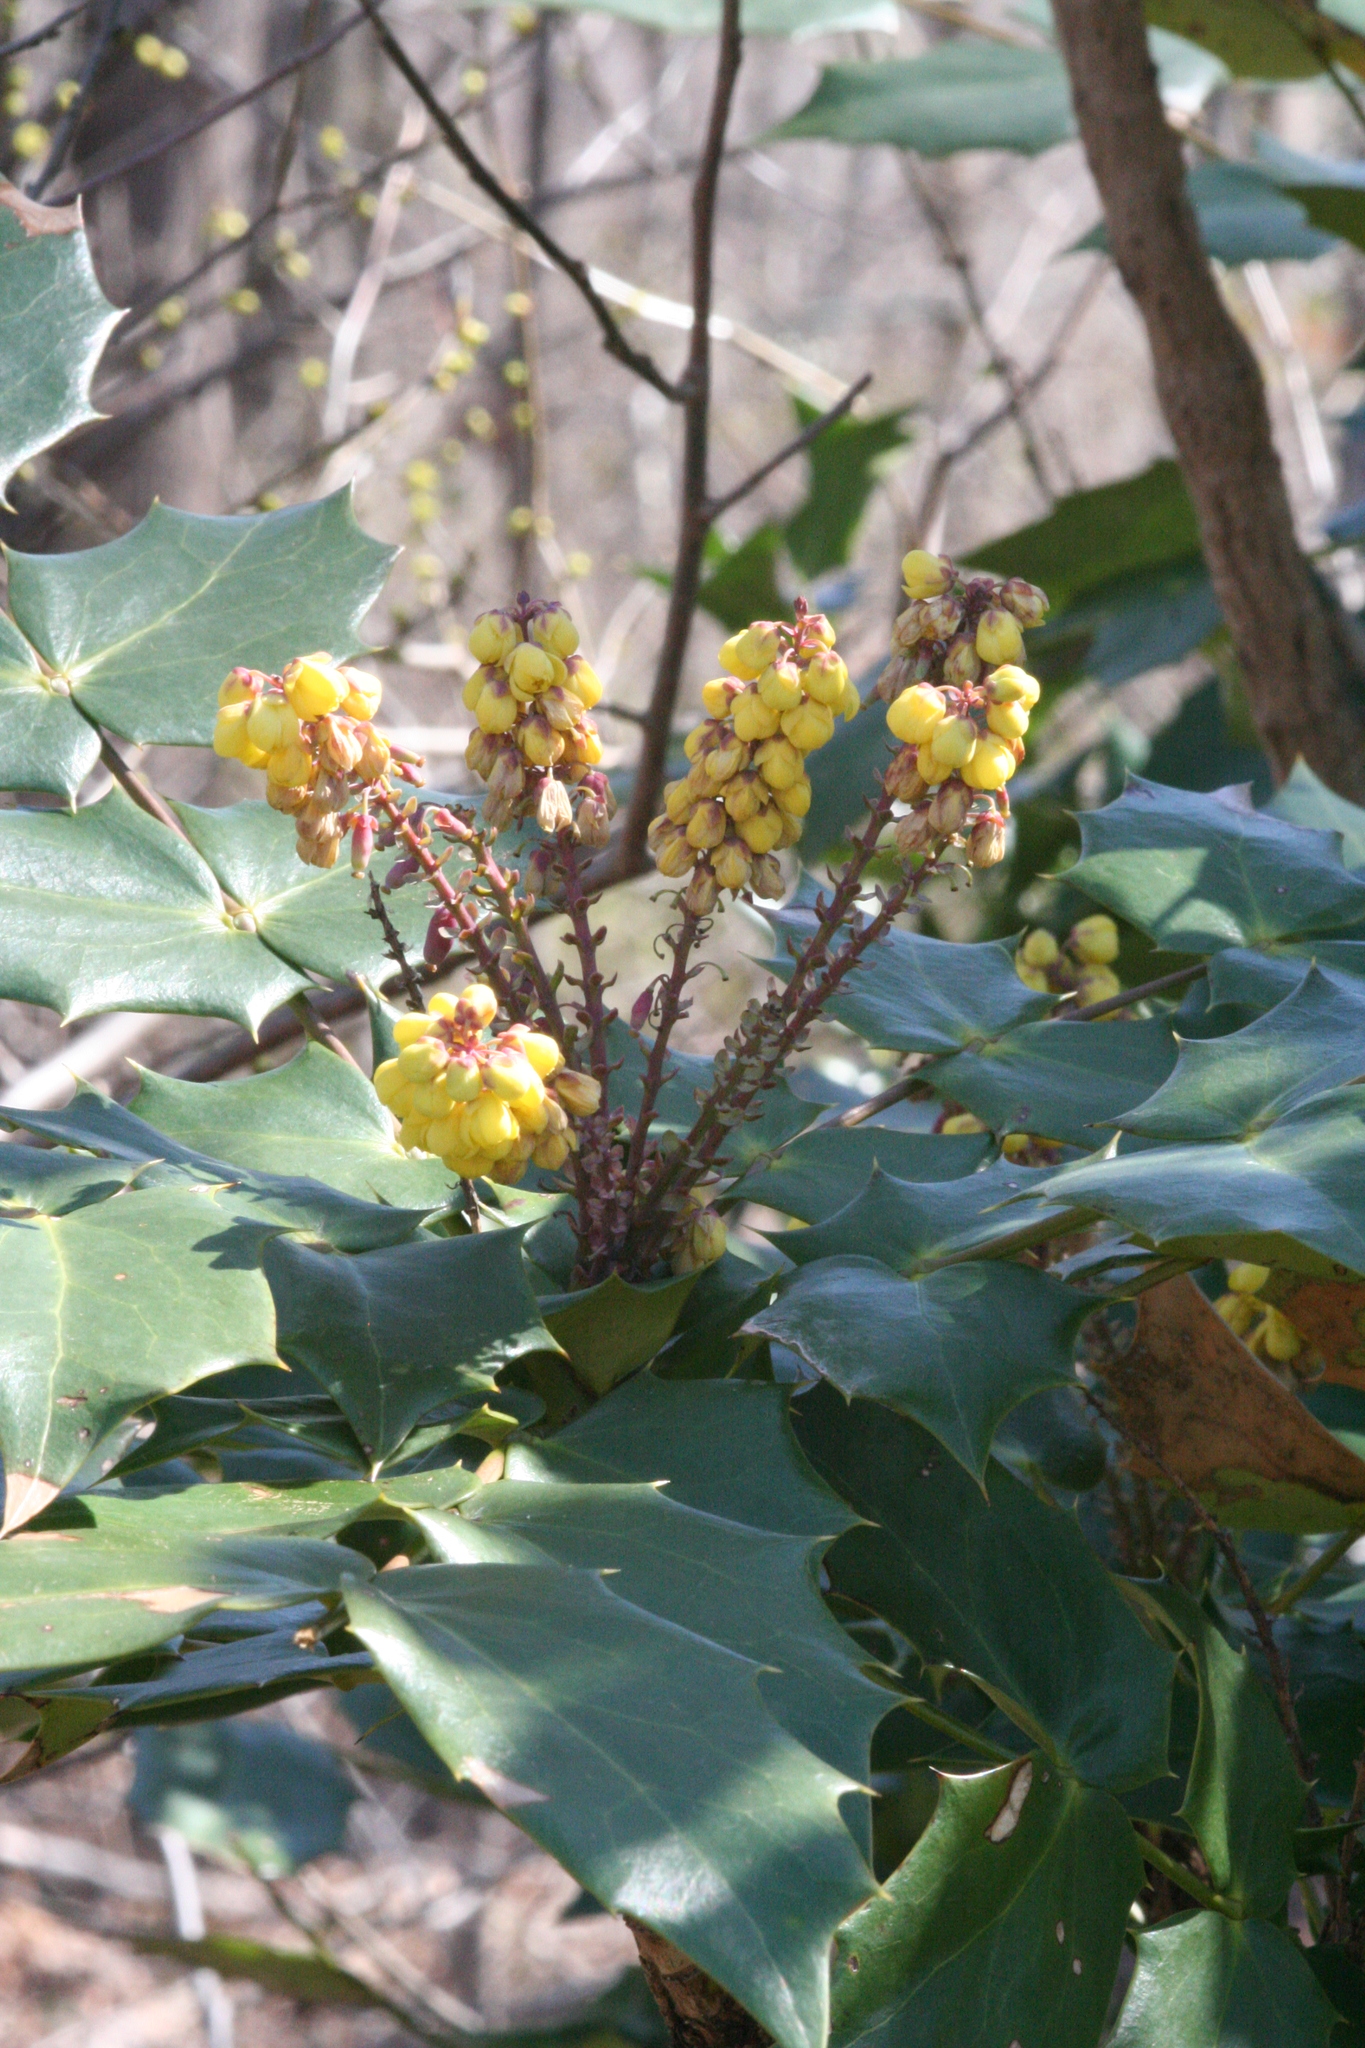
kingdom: Plantae
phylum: Tracheophyta
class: Magnoliopsida
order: Ranunculales
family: Berberidaceae
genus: Mahonia
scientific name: Mahonia bealei
